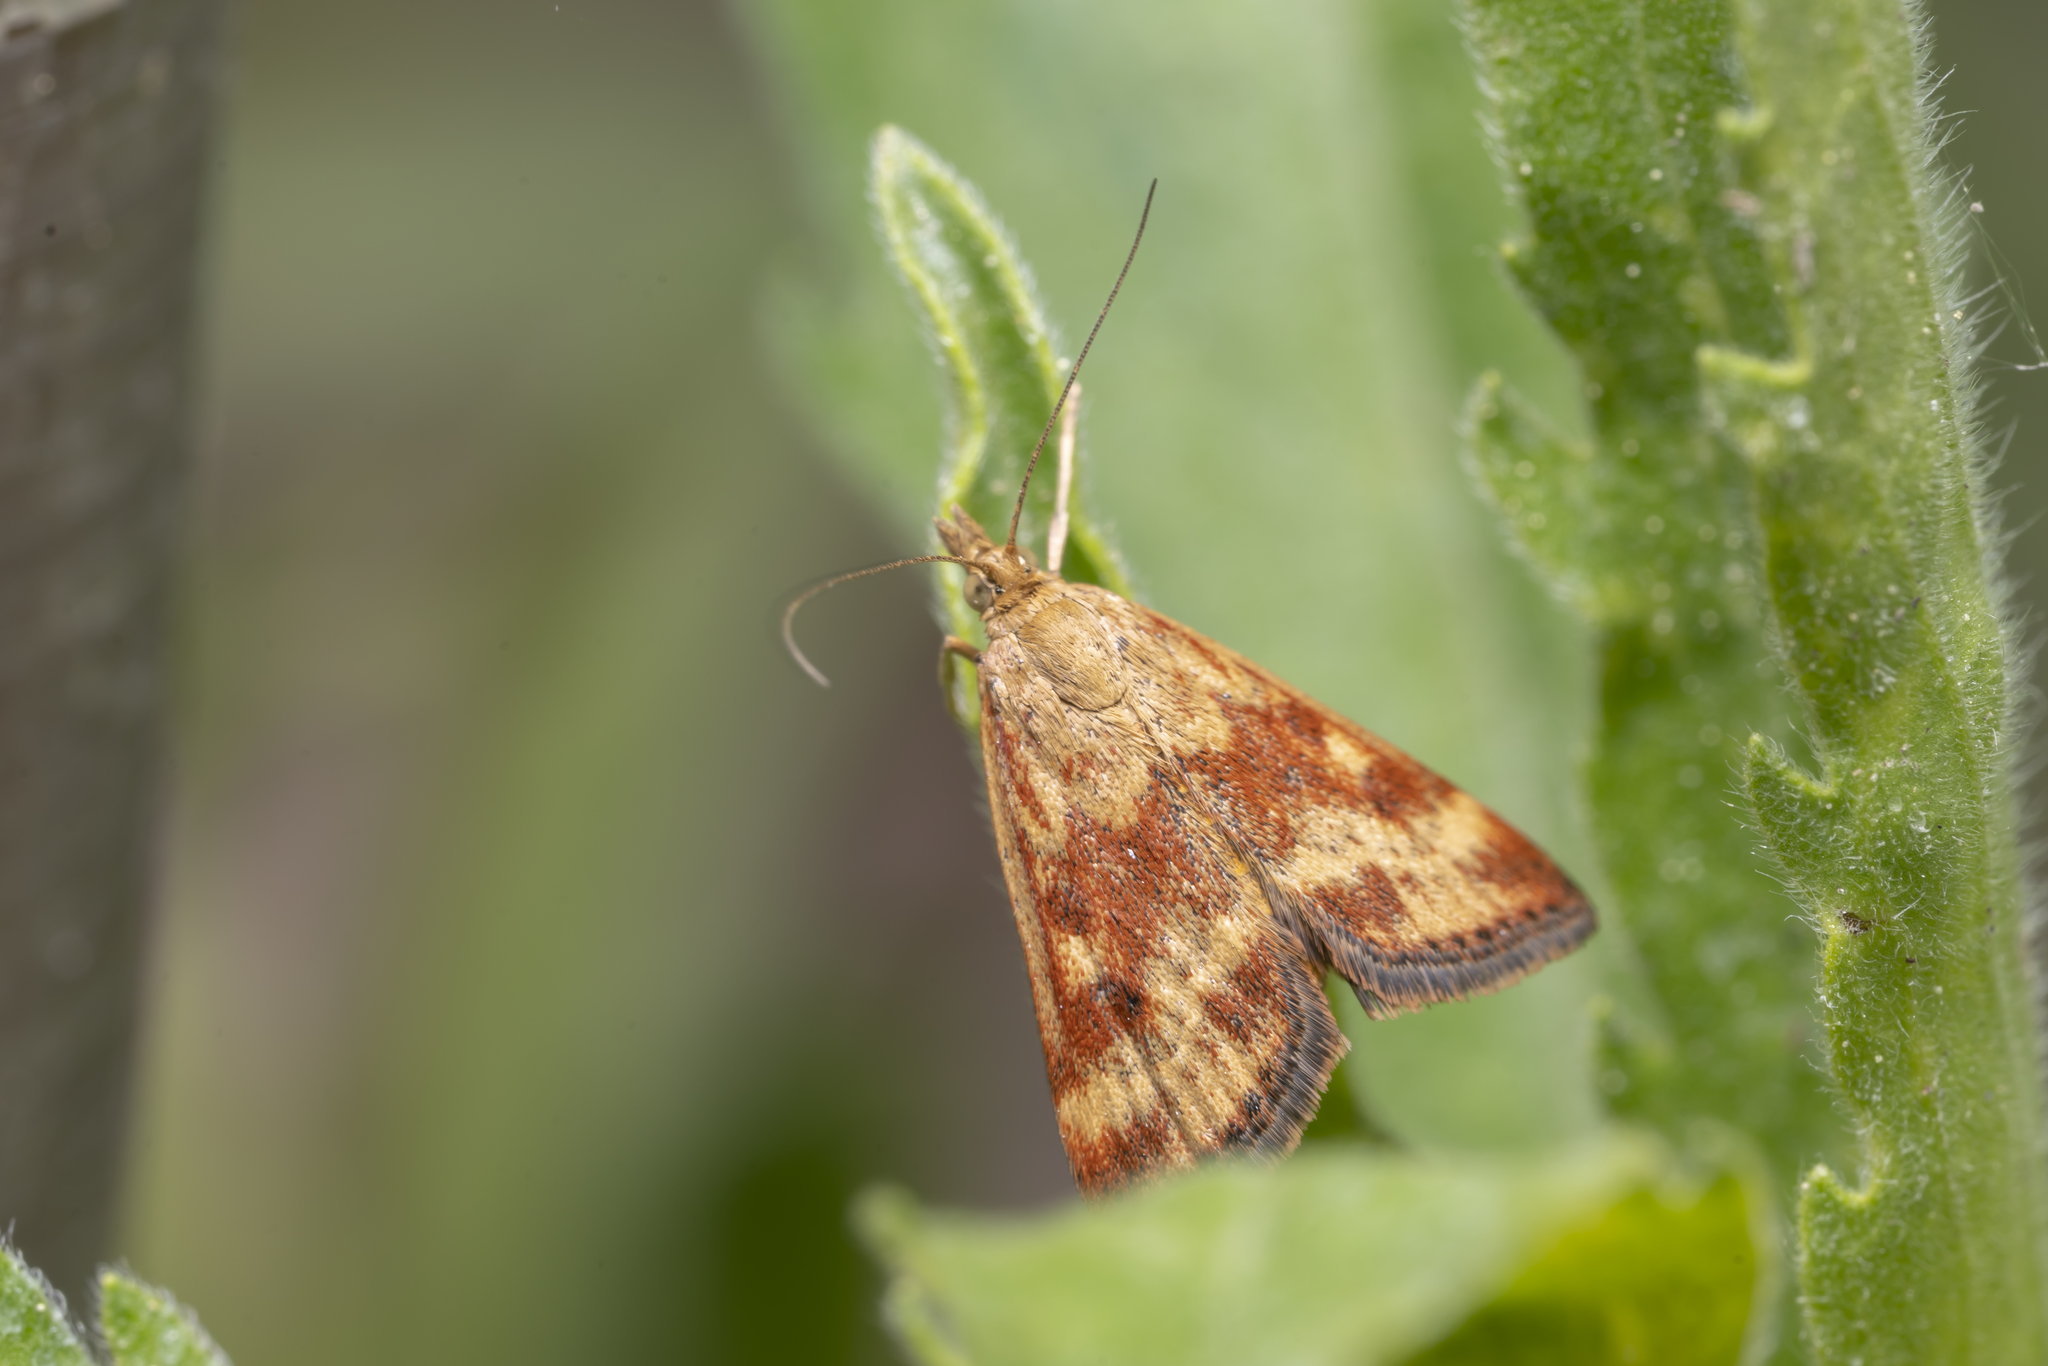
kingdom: Animalia
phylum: Arthropoda
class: Insecta
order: Lepidoptera
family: Crambidae
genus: Pyrausta
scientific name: Pyrausta despicata
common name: Straw-barred pearl
